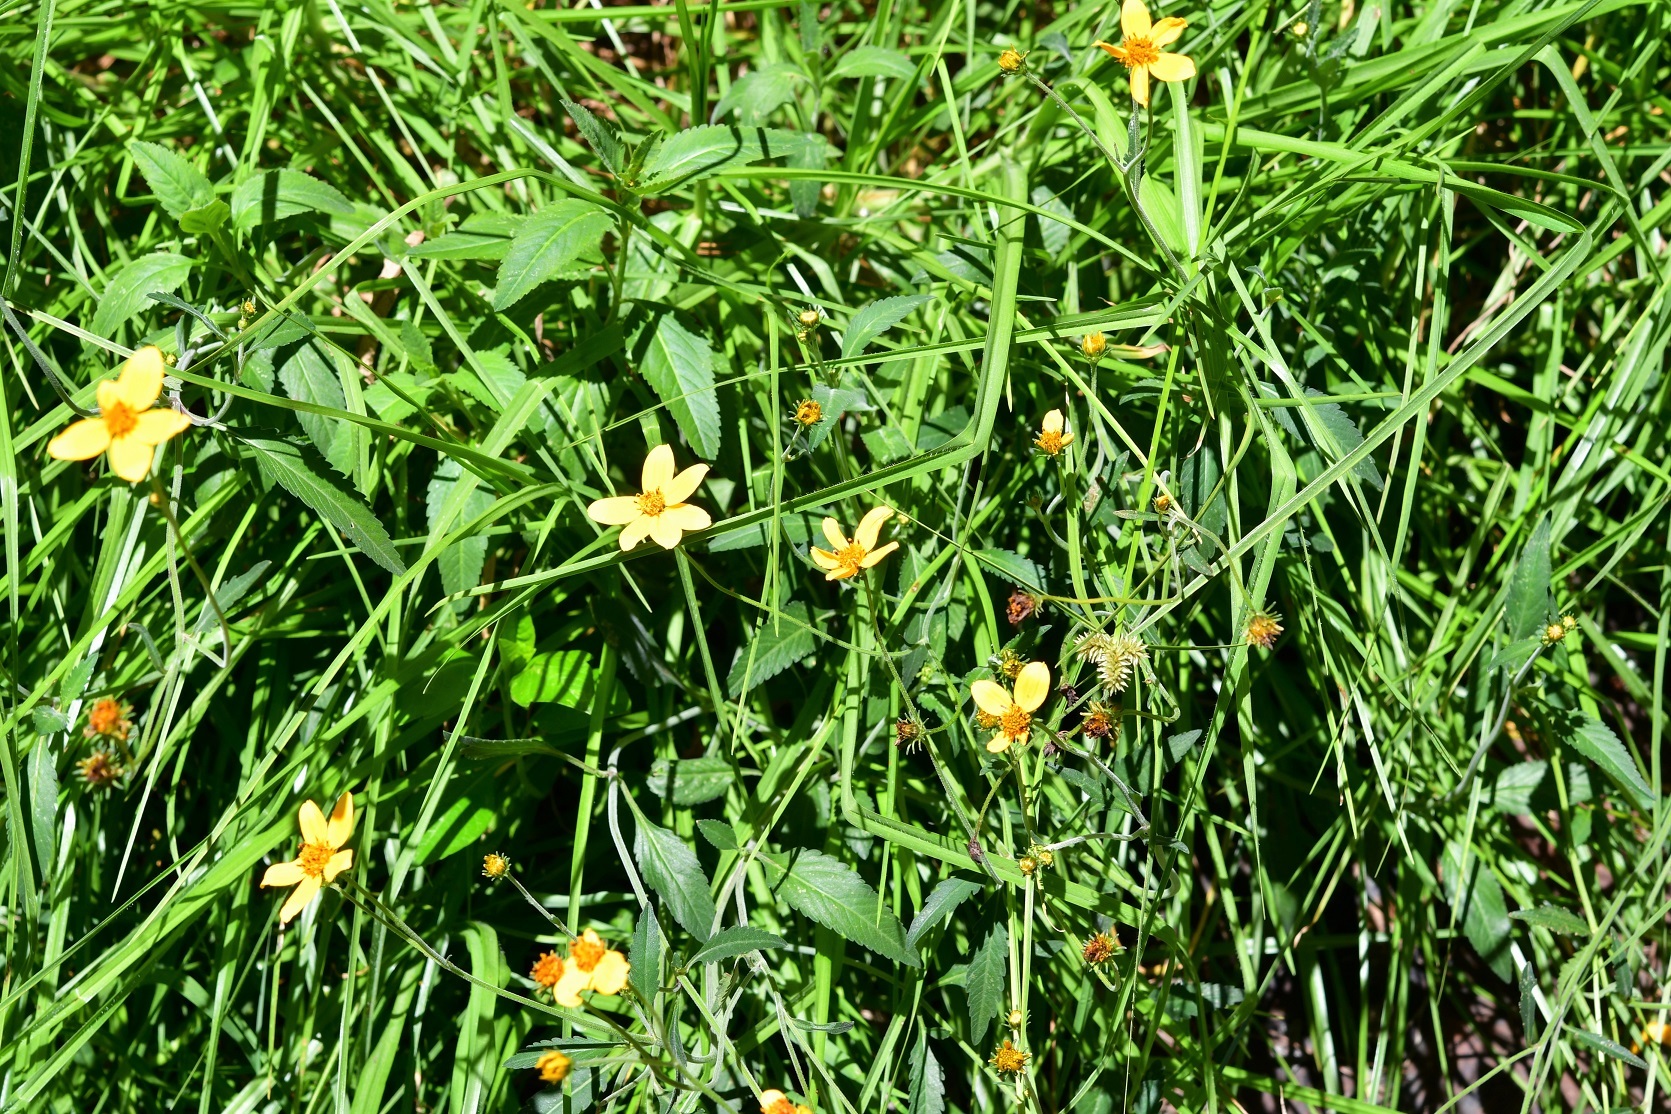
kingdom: Plantae
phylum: Tracheophyta
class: Magnoliopsida
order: Asterales
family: Asteraceae
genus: Bidens
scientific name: Bidens aurea
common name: Arizona beggar-ticks
